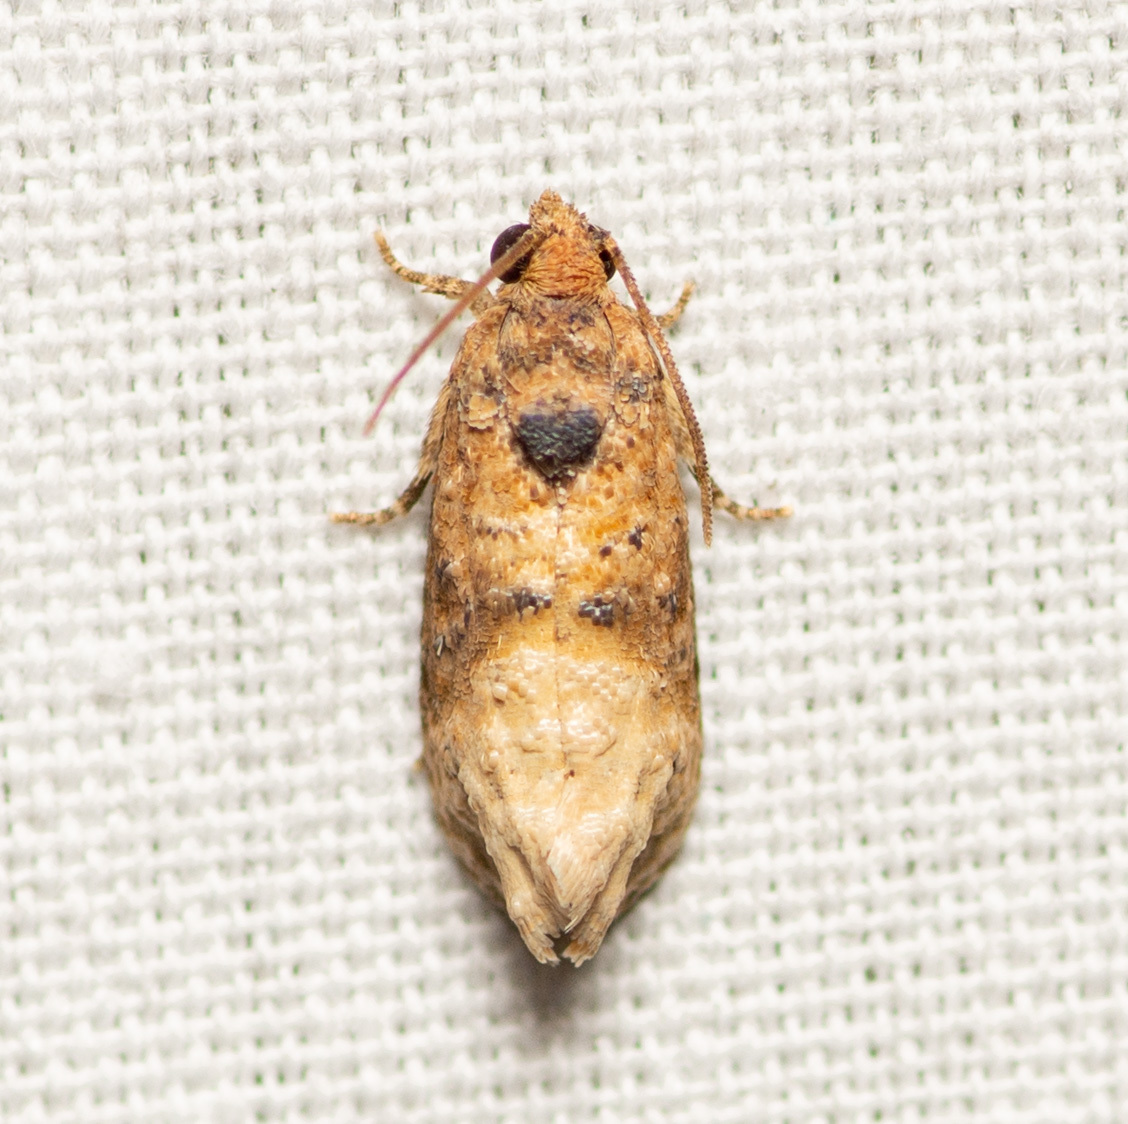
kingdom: Animalia
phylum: Arthropoda
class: Insecta
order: Lepidoptera
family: Tortricidae
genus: Ecdytolopha
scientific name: Ecdytolopha mana
